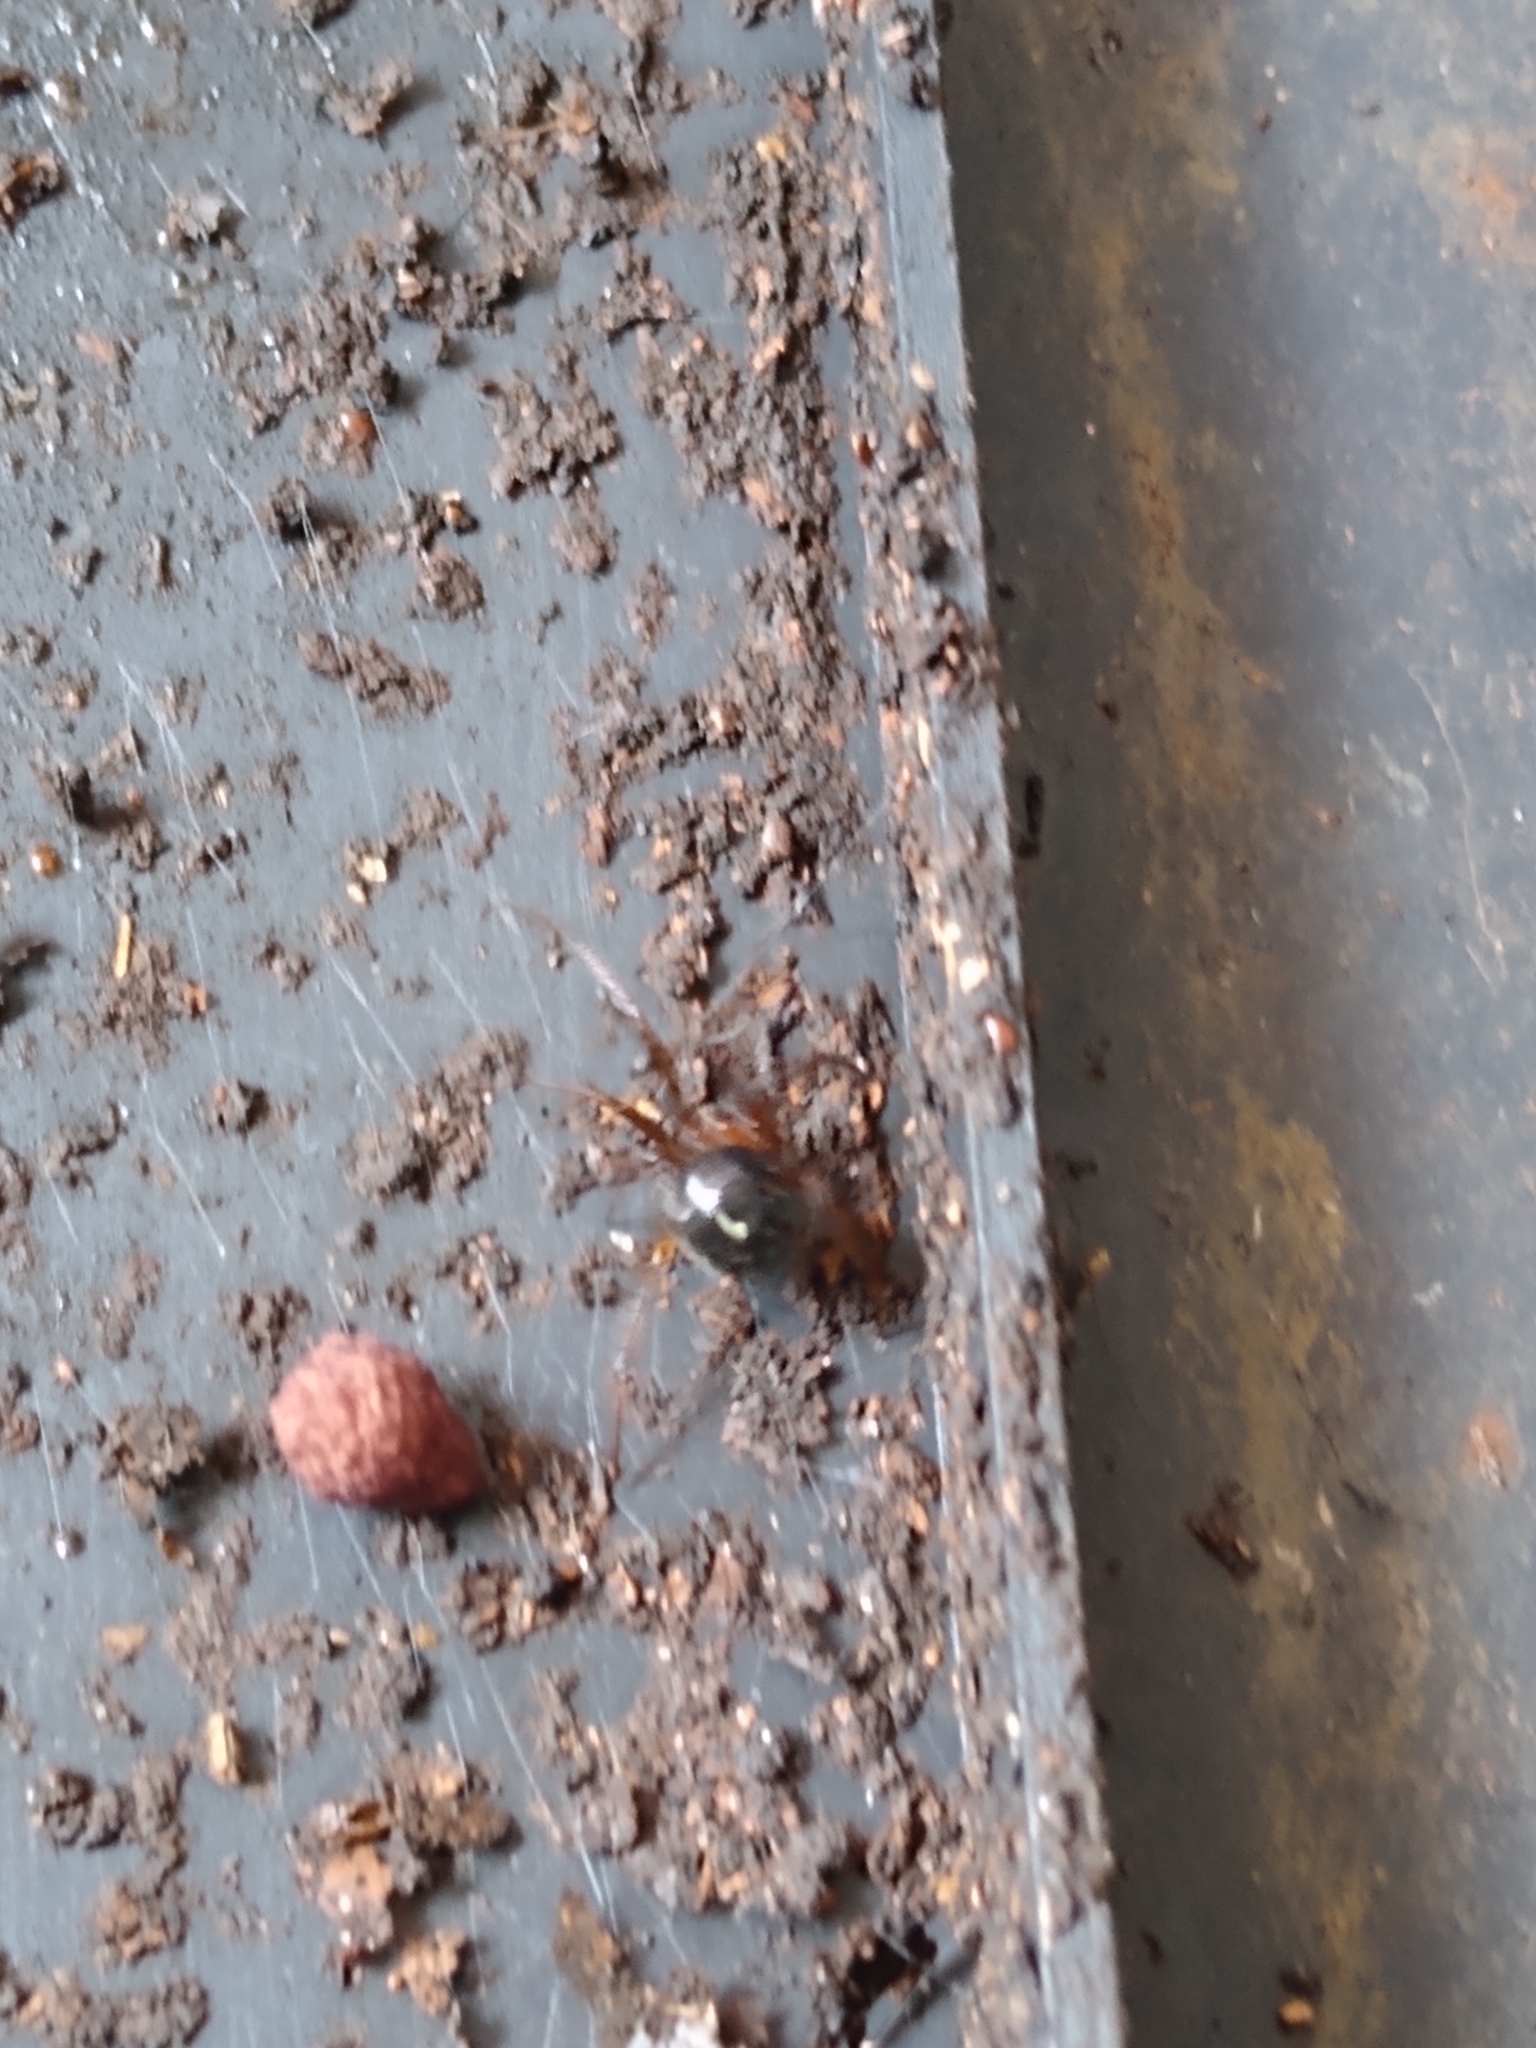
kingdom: Animalia
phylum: Arthropoda
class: Arachnida
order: Araneae
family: Theridiidae
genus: Nesticodes
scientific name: Nesticodes rufipes
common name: Cobweb spiders
